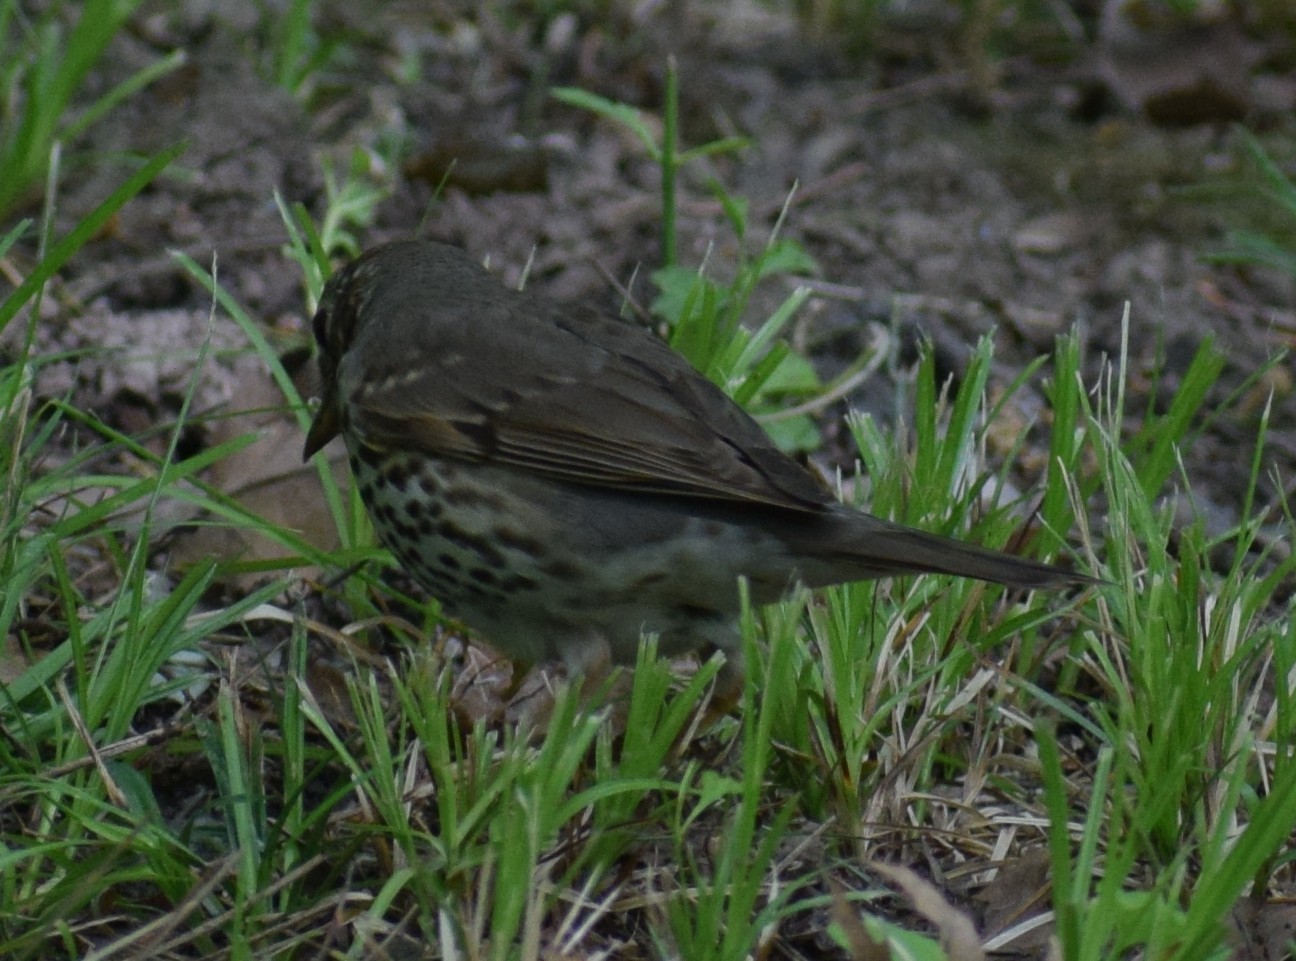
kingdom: Animalia
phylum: Chordata
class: Aves
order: Passeriformes
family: Turdidae
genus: Turdus
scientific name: Turdus philomelos
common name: Song thrush
